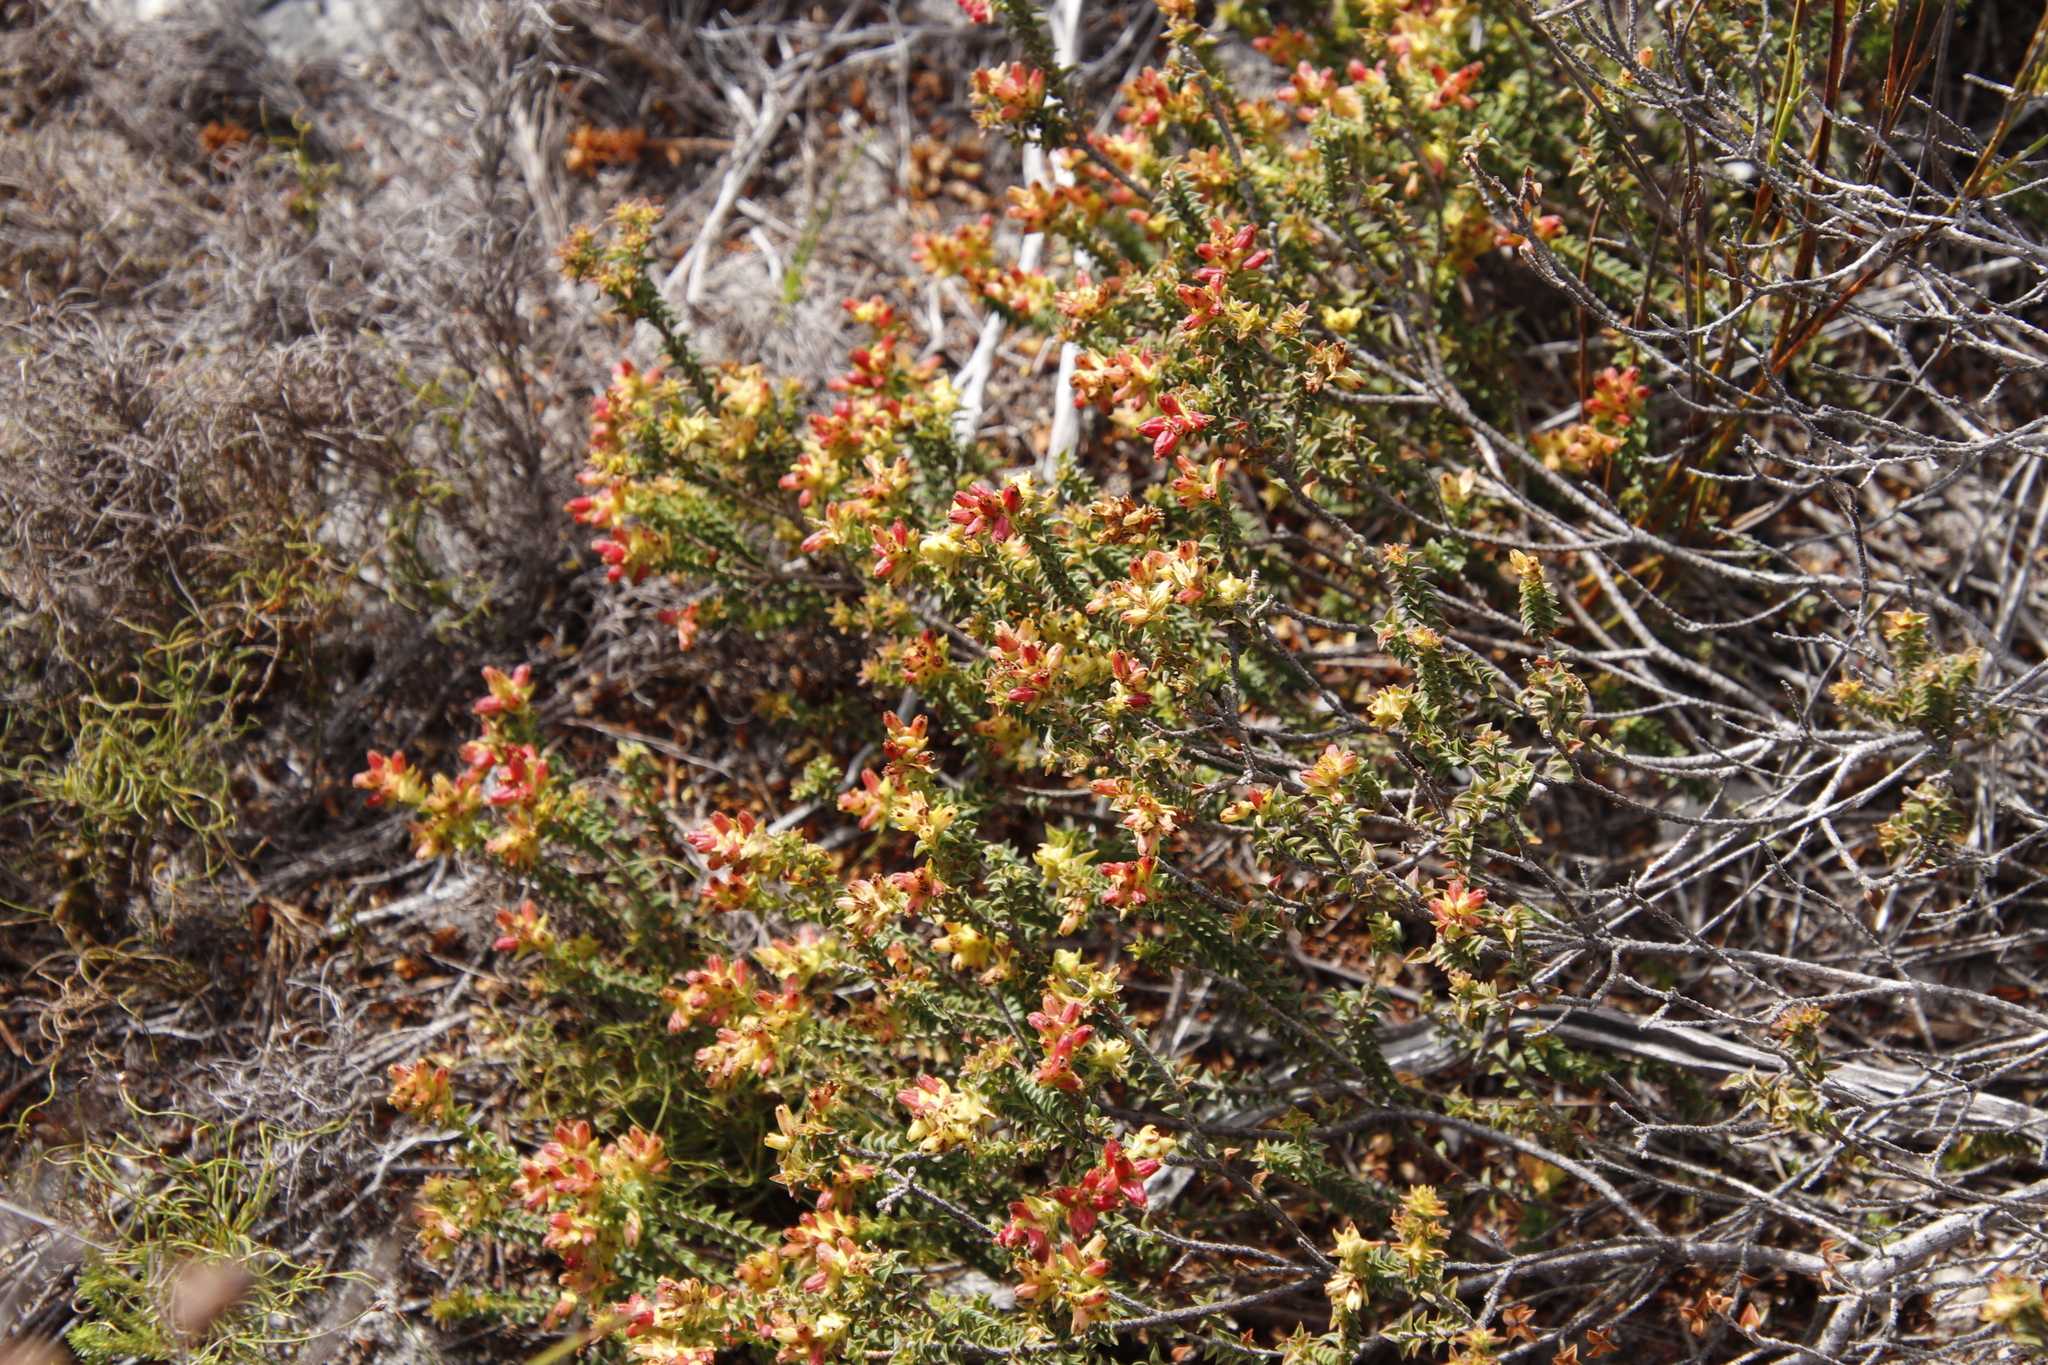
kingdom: Plantae
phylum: Tracheophyta
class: Magnoliopsida
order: Myrtales
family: Penaeaceae
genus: Penaea
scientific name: Penaea mucronata
